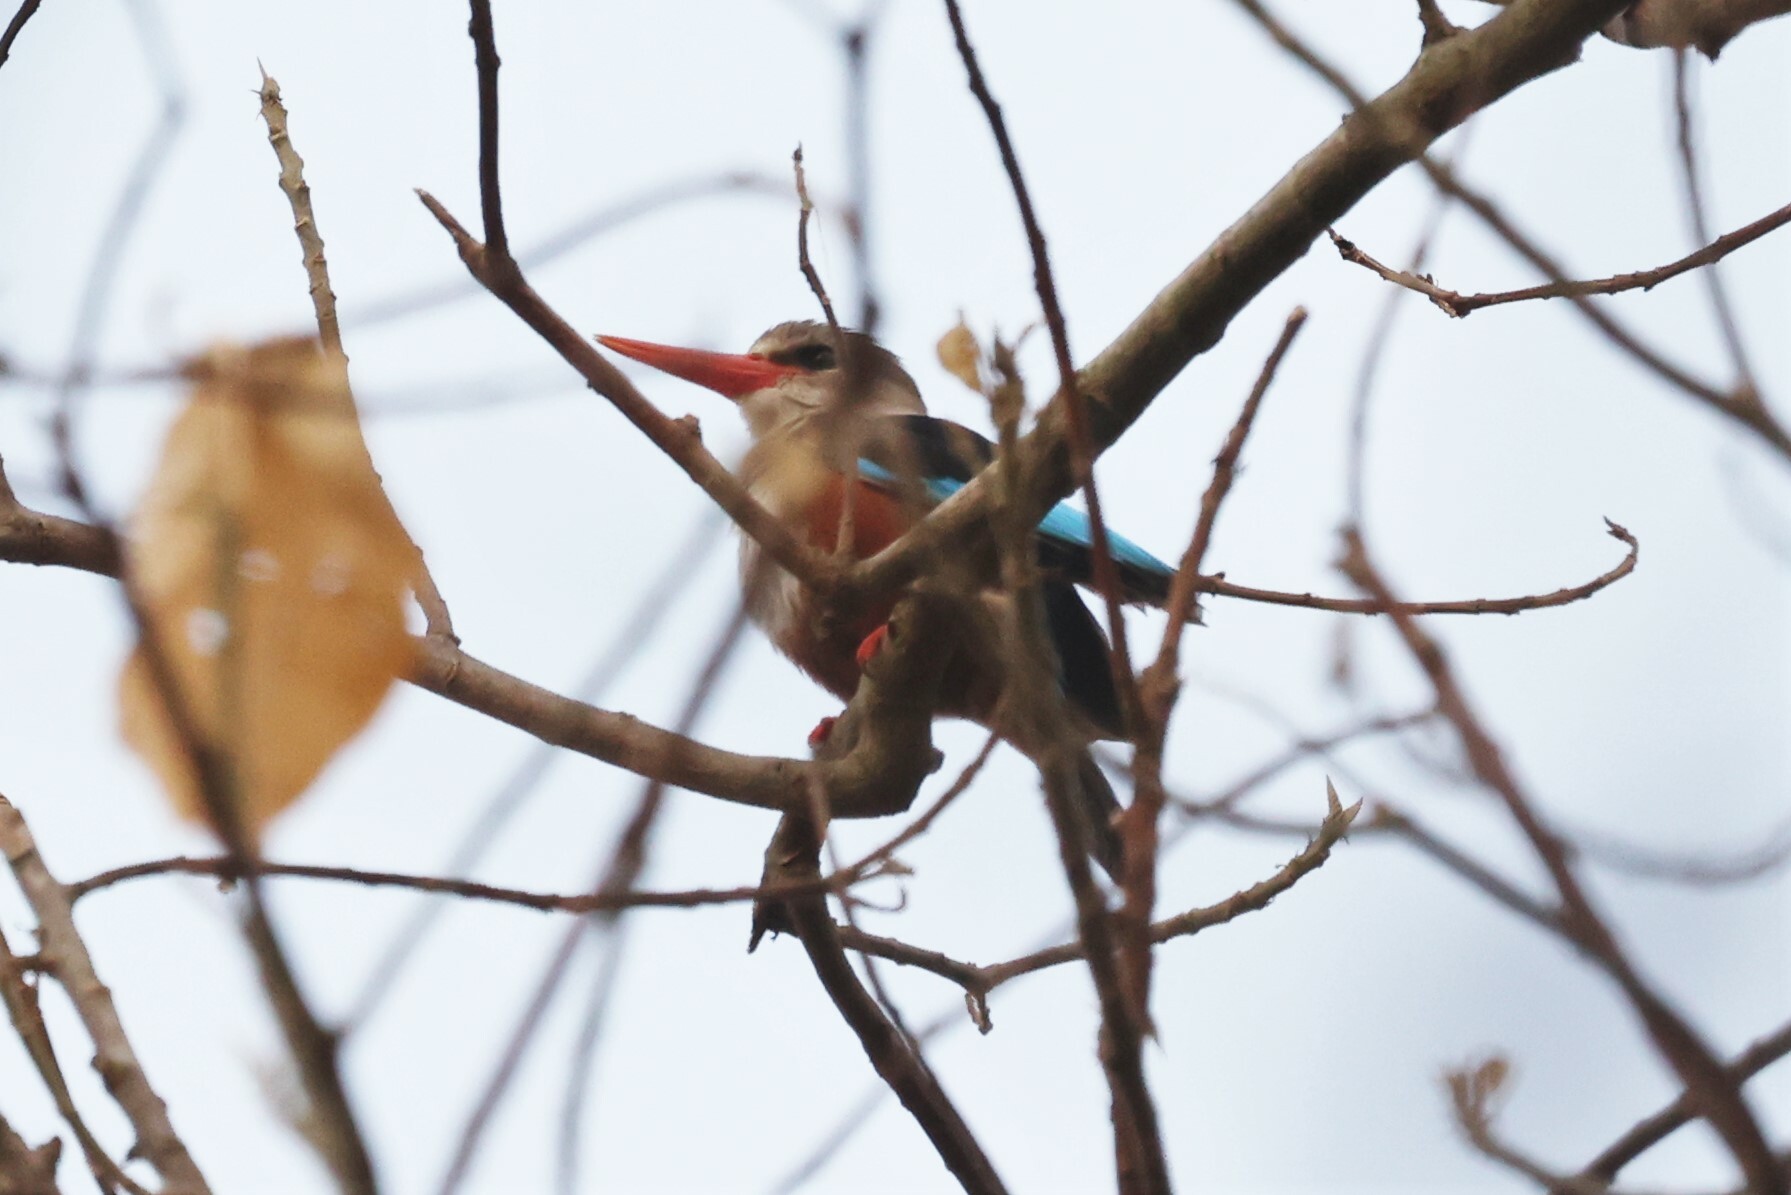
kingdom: Animalia
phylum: Chordata
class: Aves
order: Coraciiformes
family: Alcedinidae
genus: Halcyon
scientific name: Halcyon leucocephala
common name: Grey-headed kingfisher
